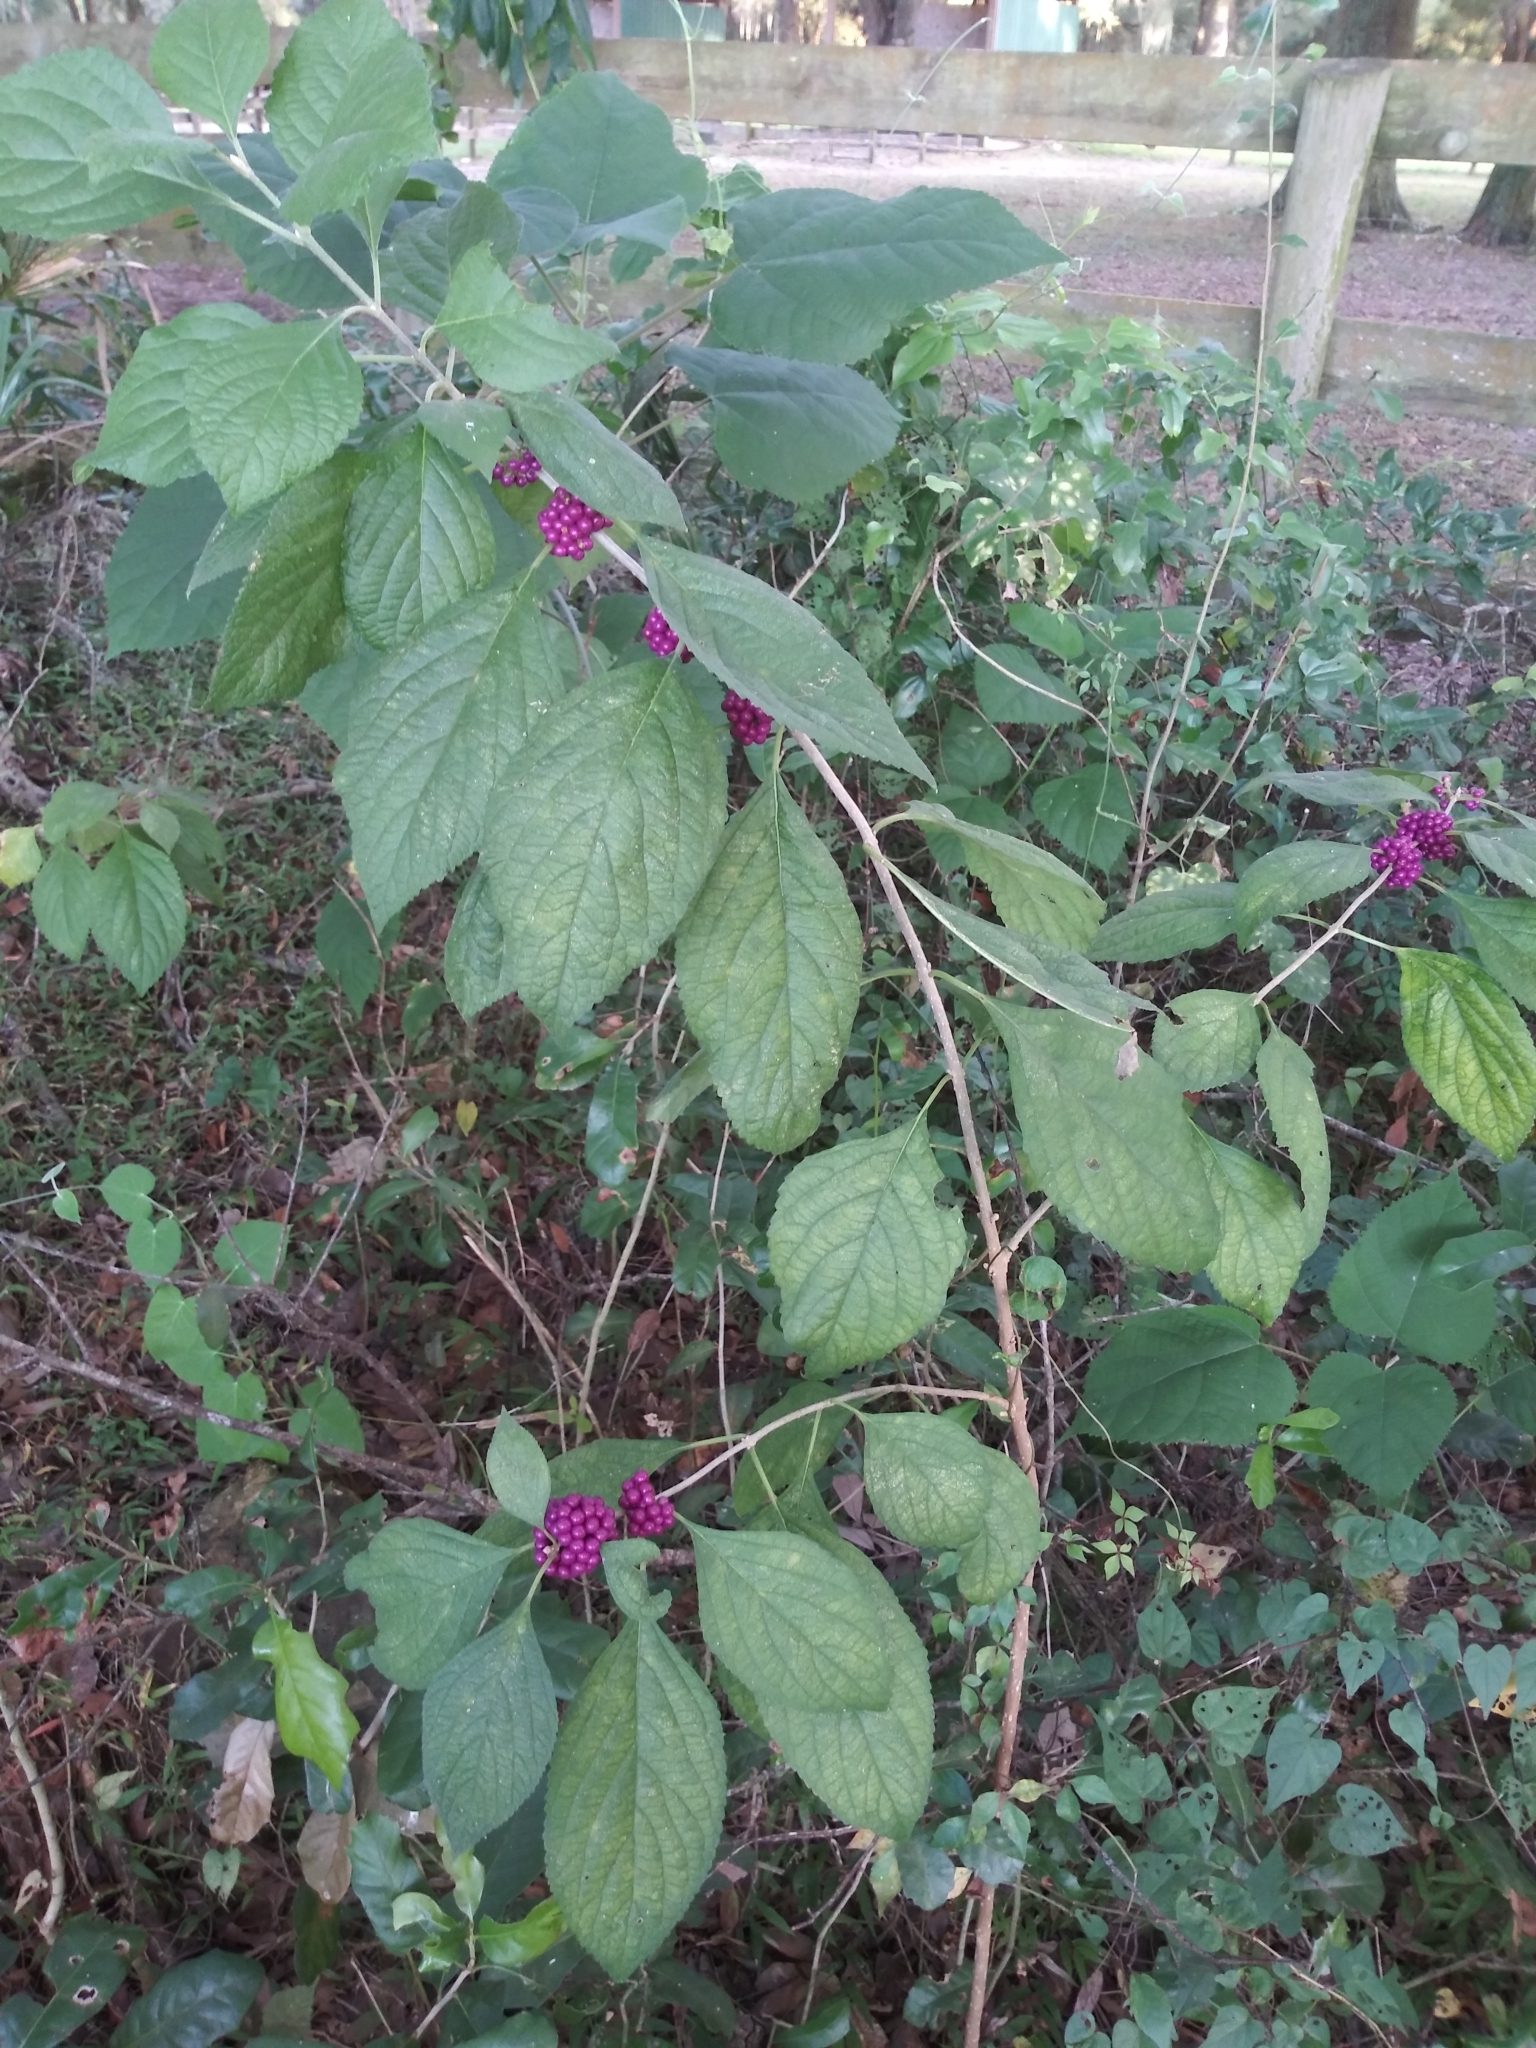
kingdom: Plantae
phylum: Tracheophyta
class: Magnoliopsida
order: Lamiales
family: Lamiaceae
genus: Callicarpa
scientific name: Callicarpa americana
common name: American beautyberry
